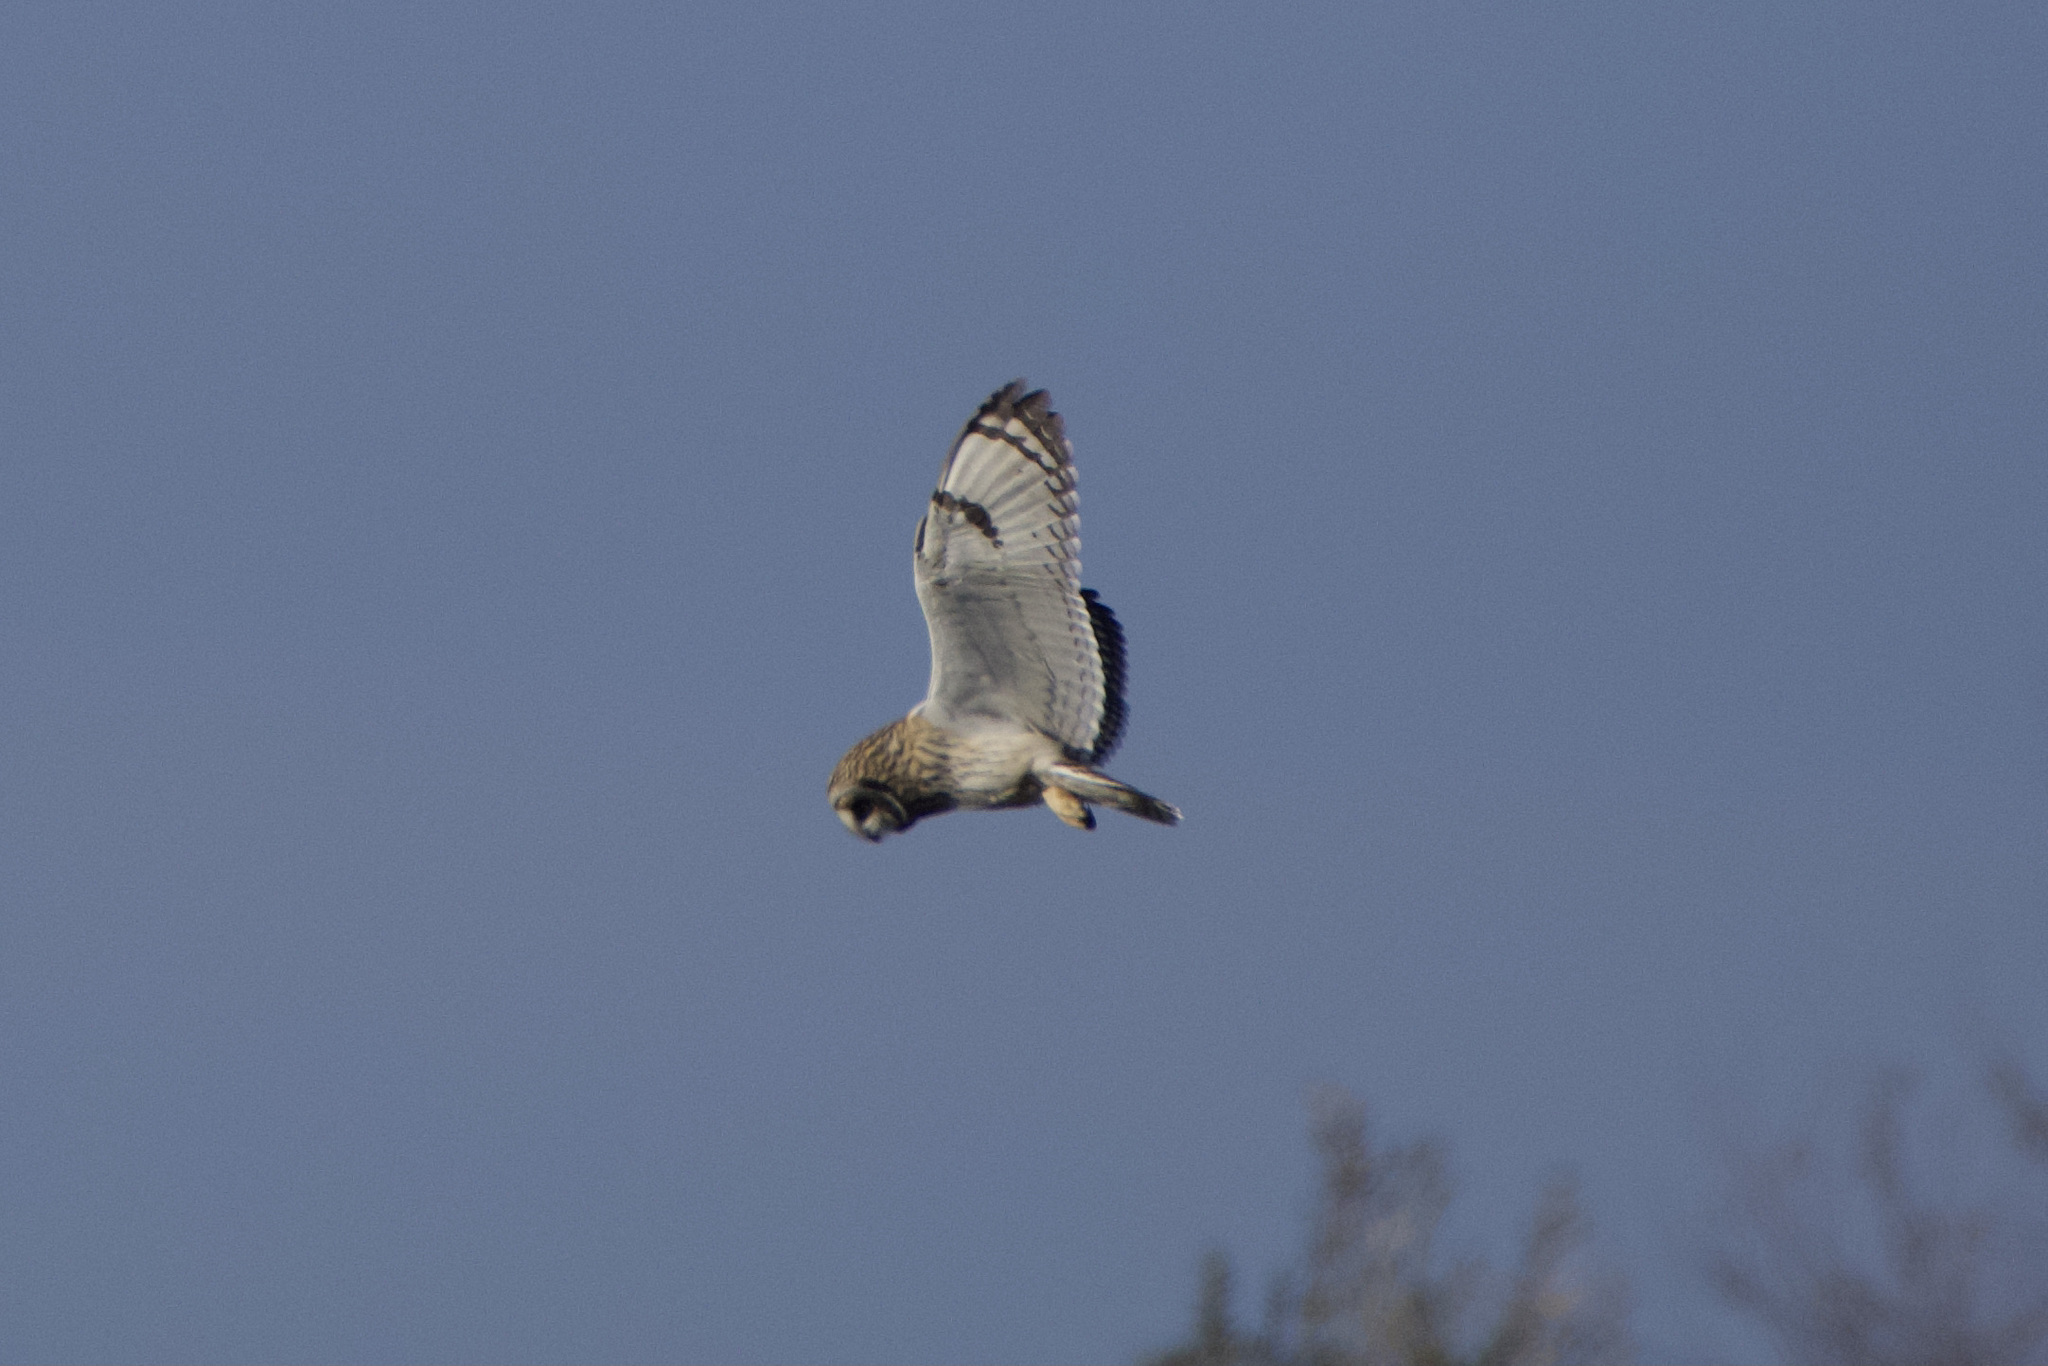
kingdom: Animalia
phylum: Chordata
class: Aves
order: Strigiformes
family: Strigidae
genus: Asio
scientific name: Asio flammeus
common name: Short-eared owl
